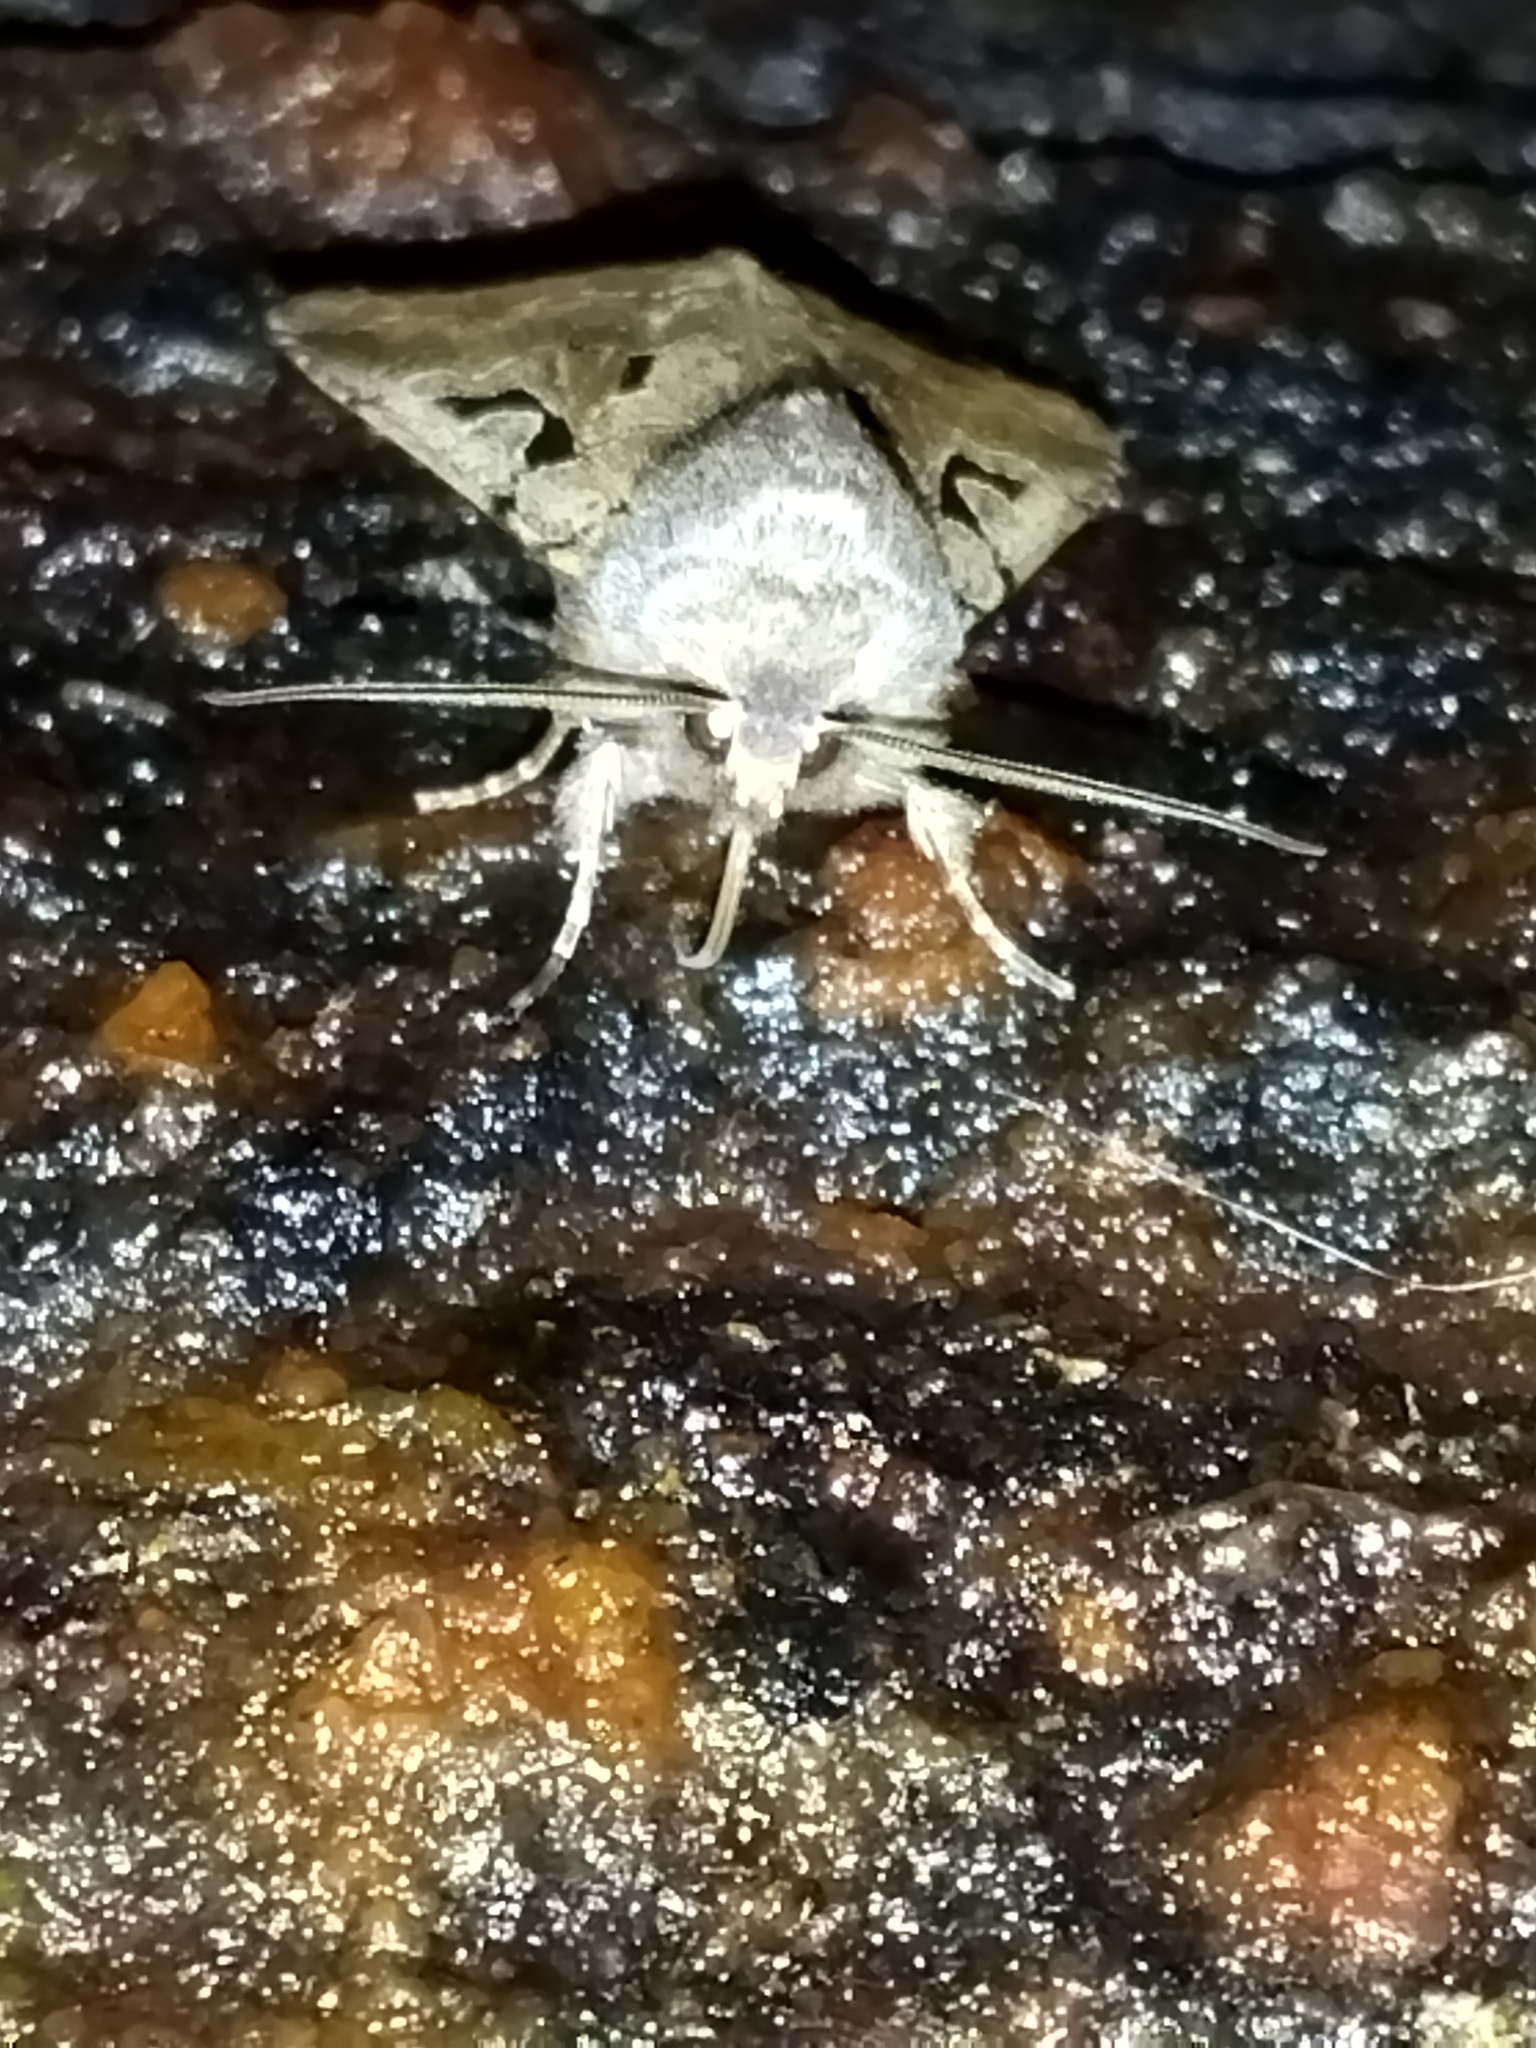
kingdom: Animalia
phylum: Arthropoda
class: Insecta
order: Lepidoptera
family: Noctuidae
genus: Orthosia
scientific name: Orthosia gothica
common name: Hebrew character
